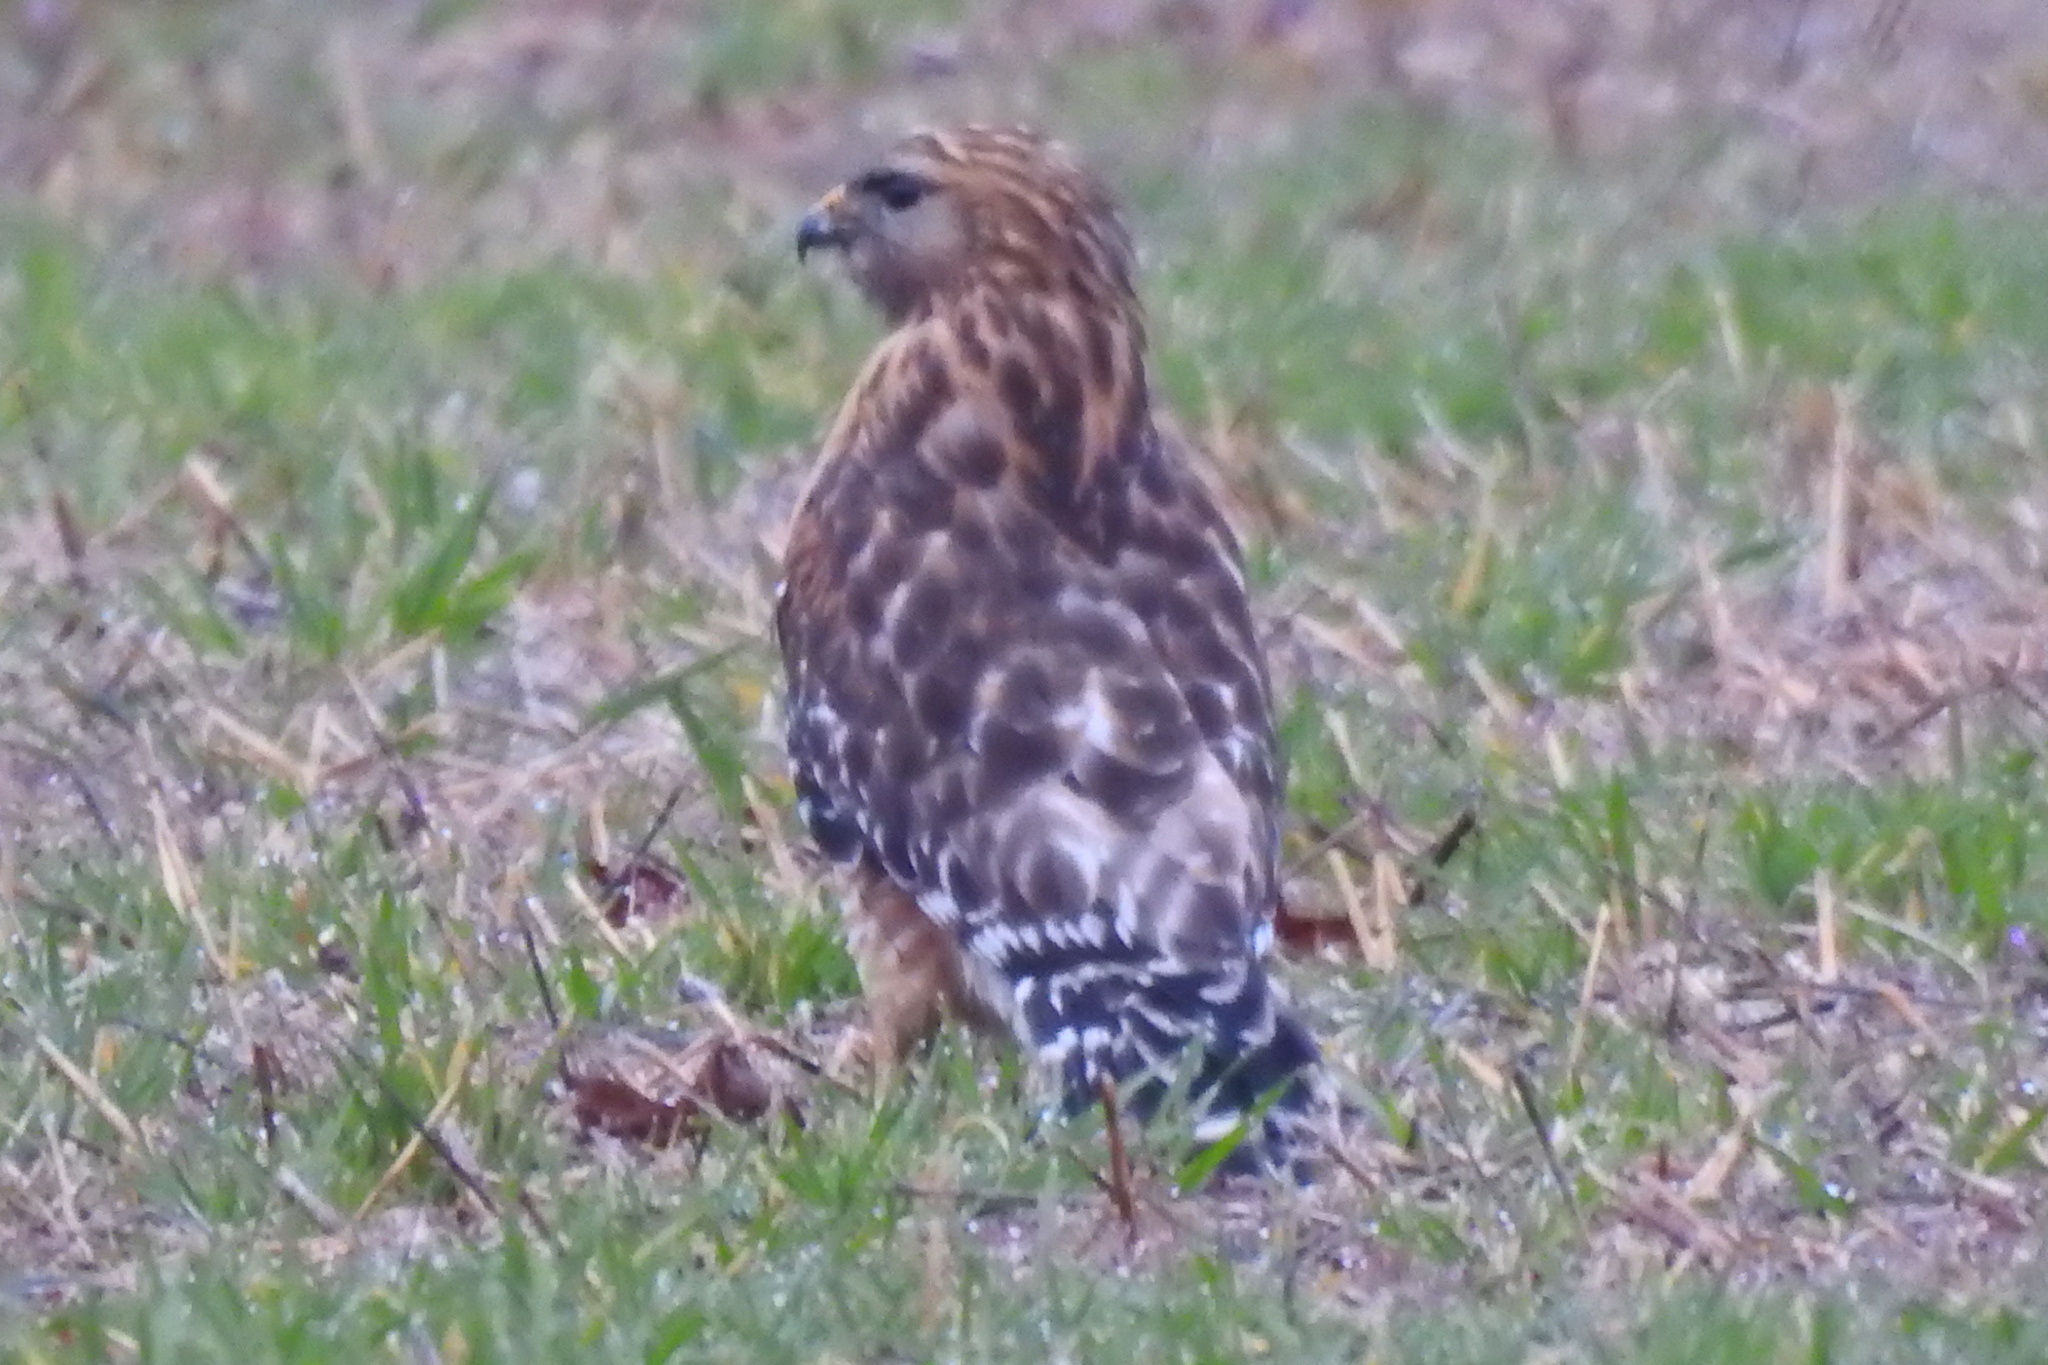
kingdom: Animalia
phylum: Chordata
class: Aves
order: Accipitriformes
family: Accipitridae
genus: Buteo
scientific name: Buteo lineatus
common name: Red-shouldered hawk
